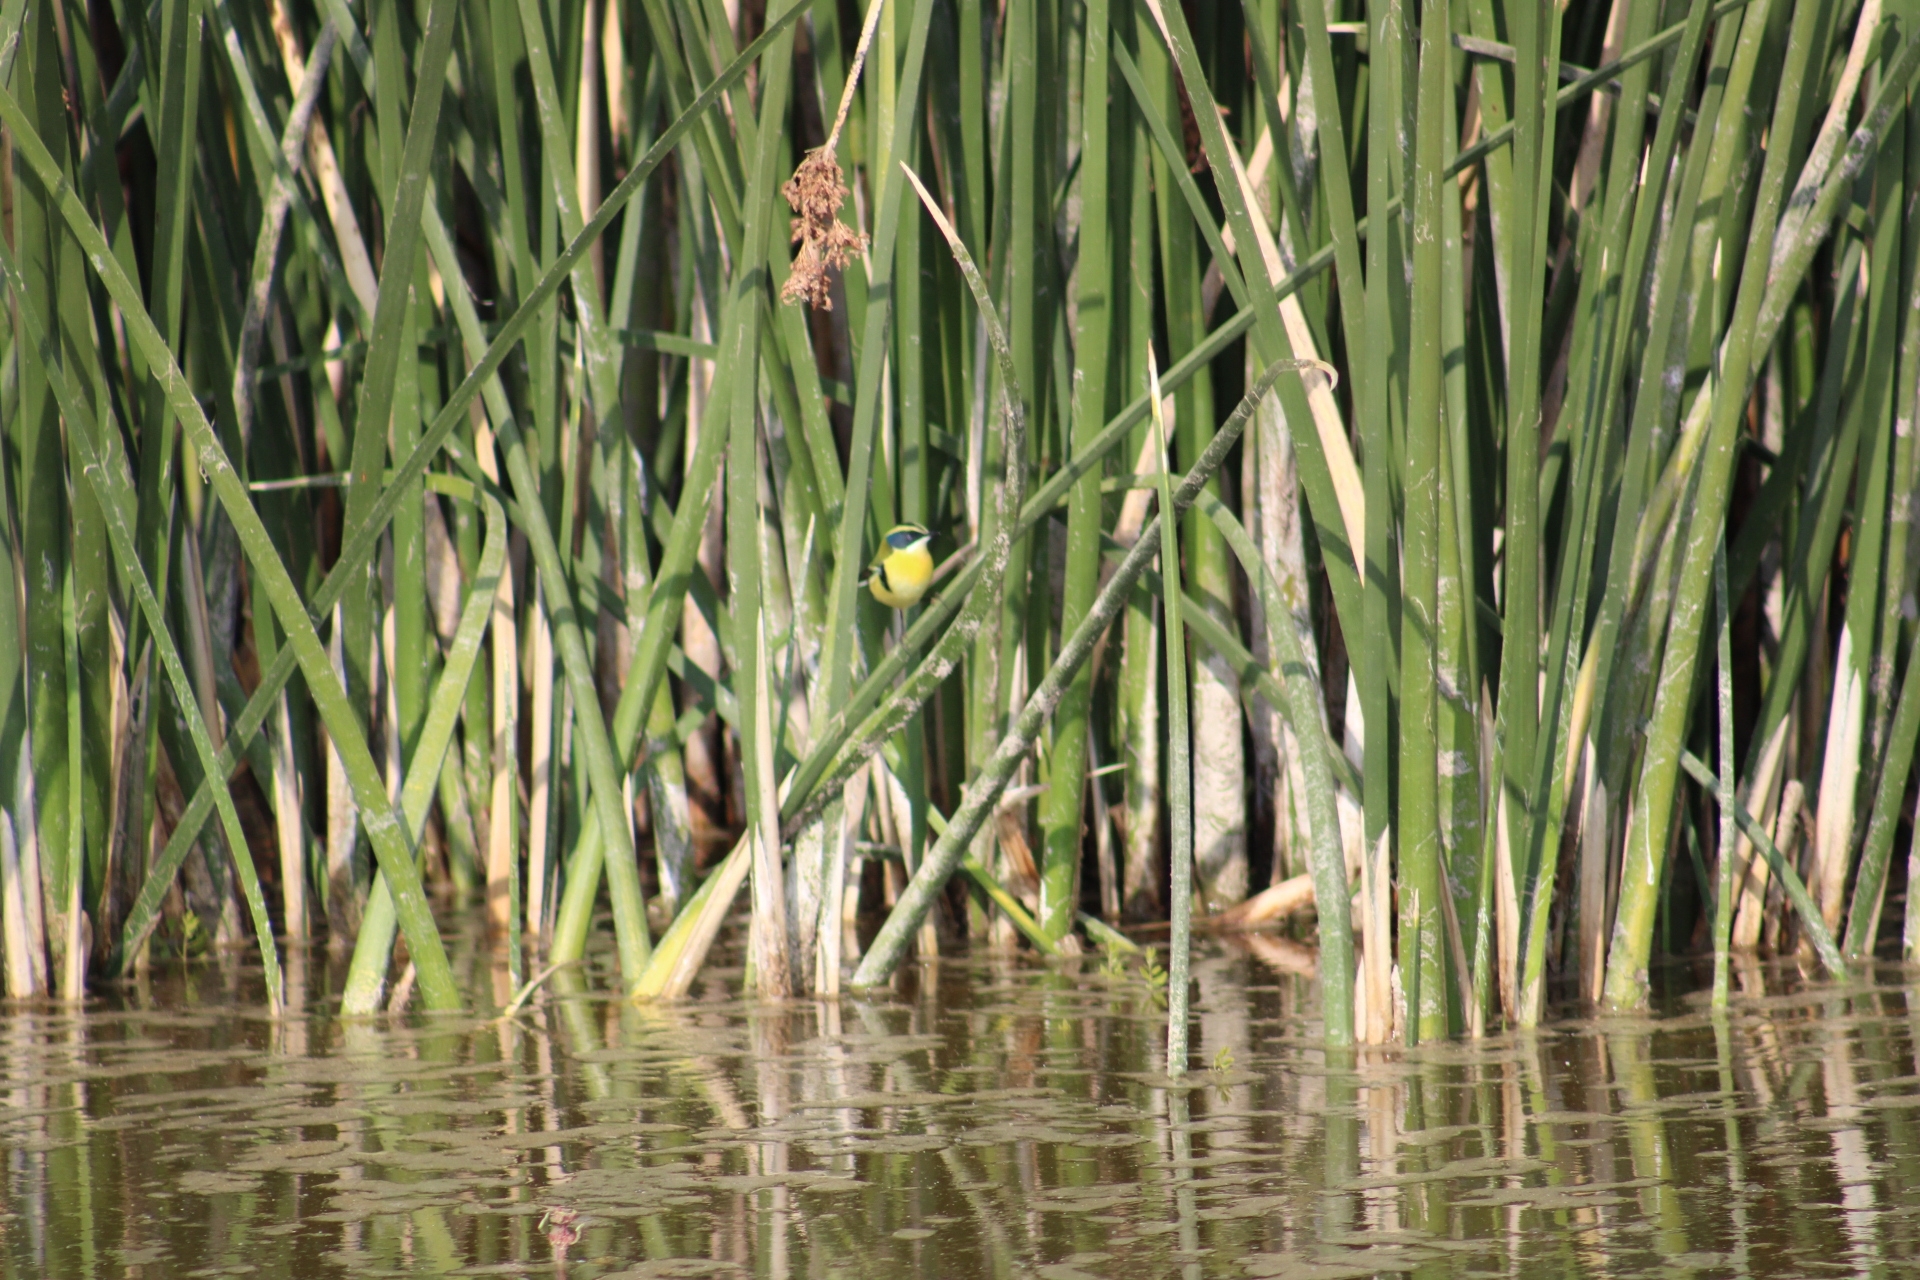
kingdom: Animalia
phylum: Chordata
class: Aves
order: Passeriformes
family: Tyrannidae
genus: Tachuris
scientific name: Tachuris rubrigastra
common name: Many-colored rush tyrant
